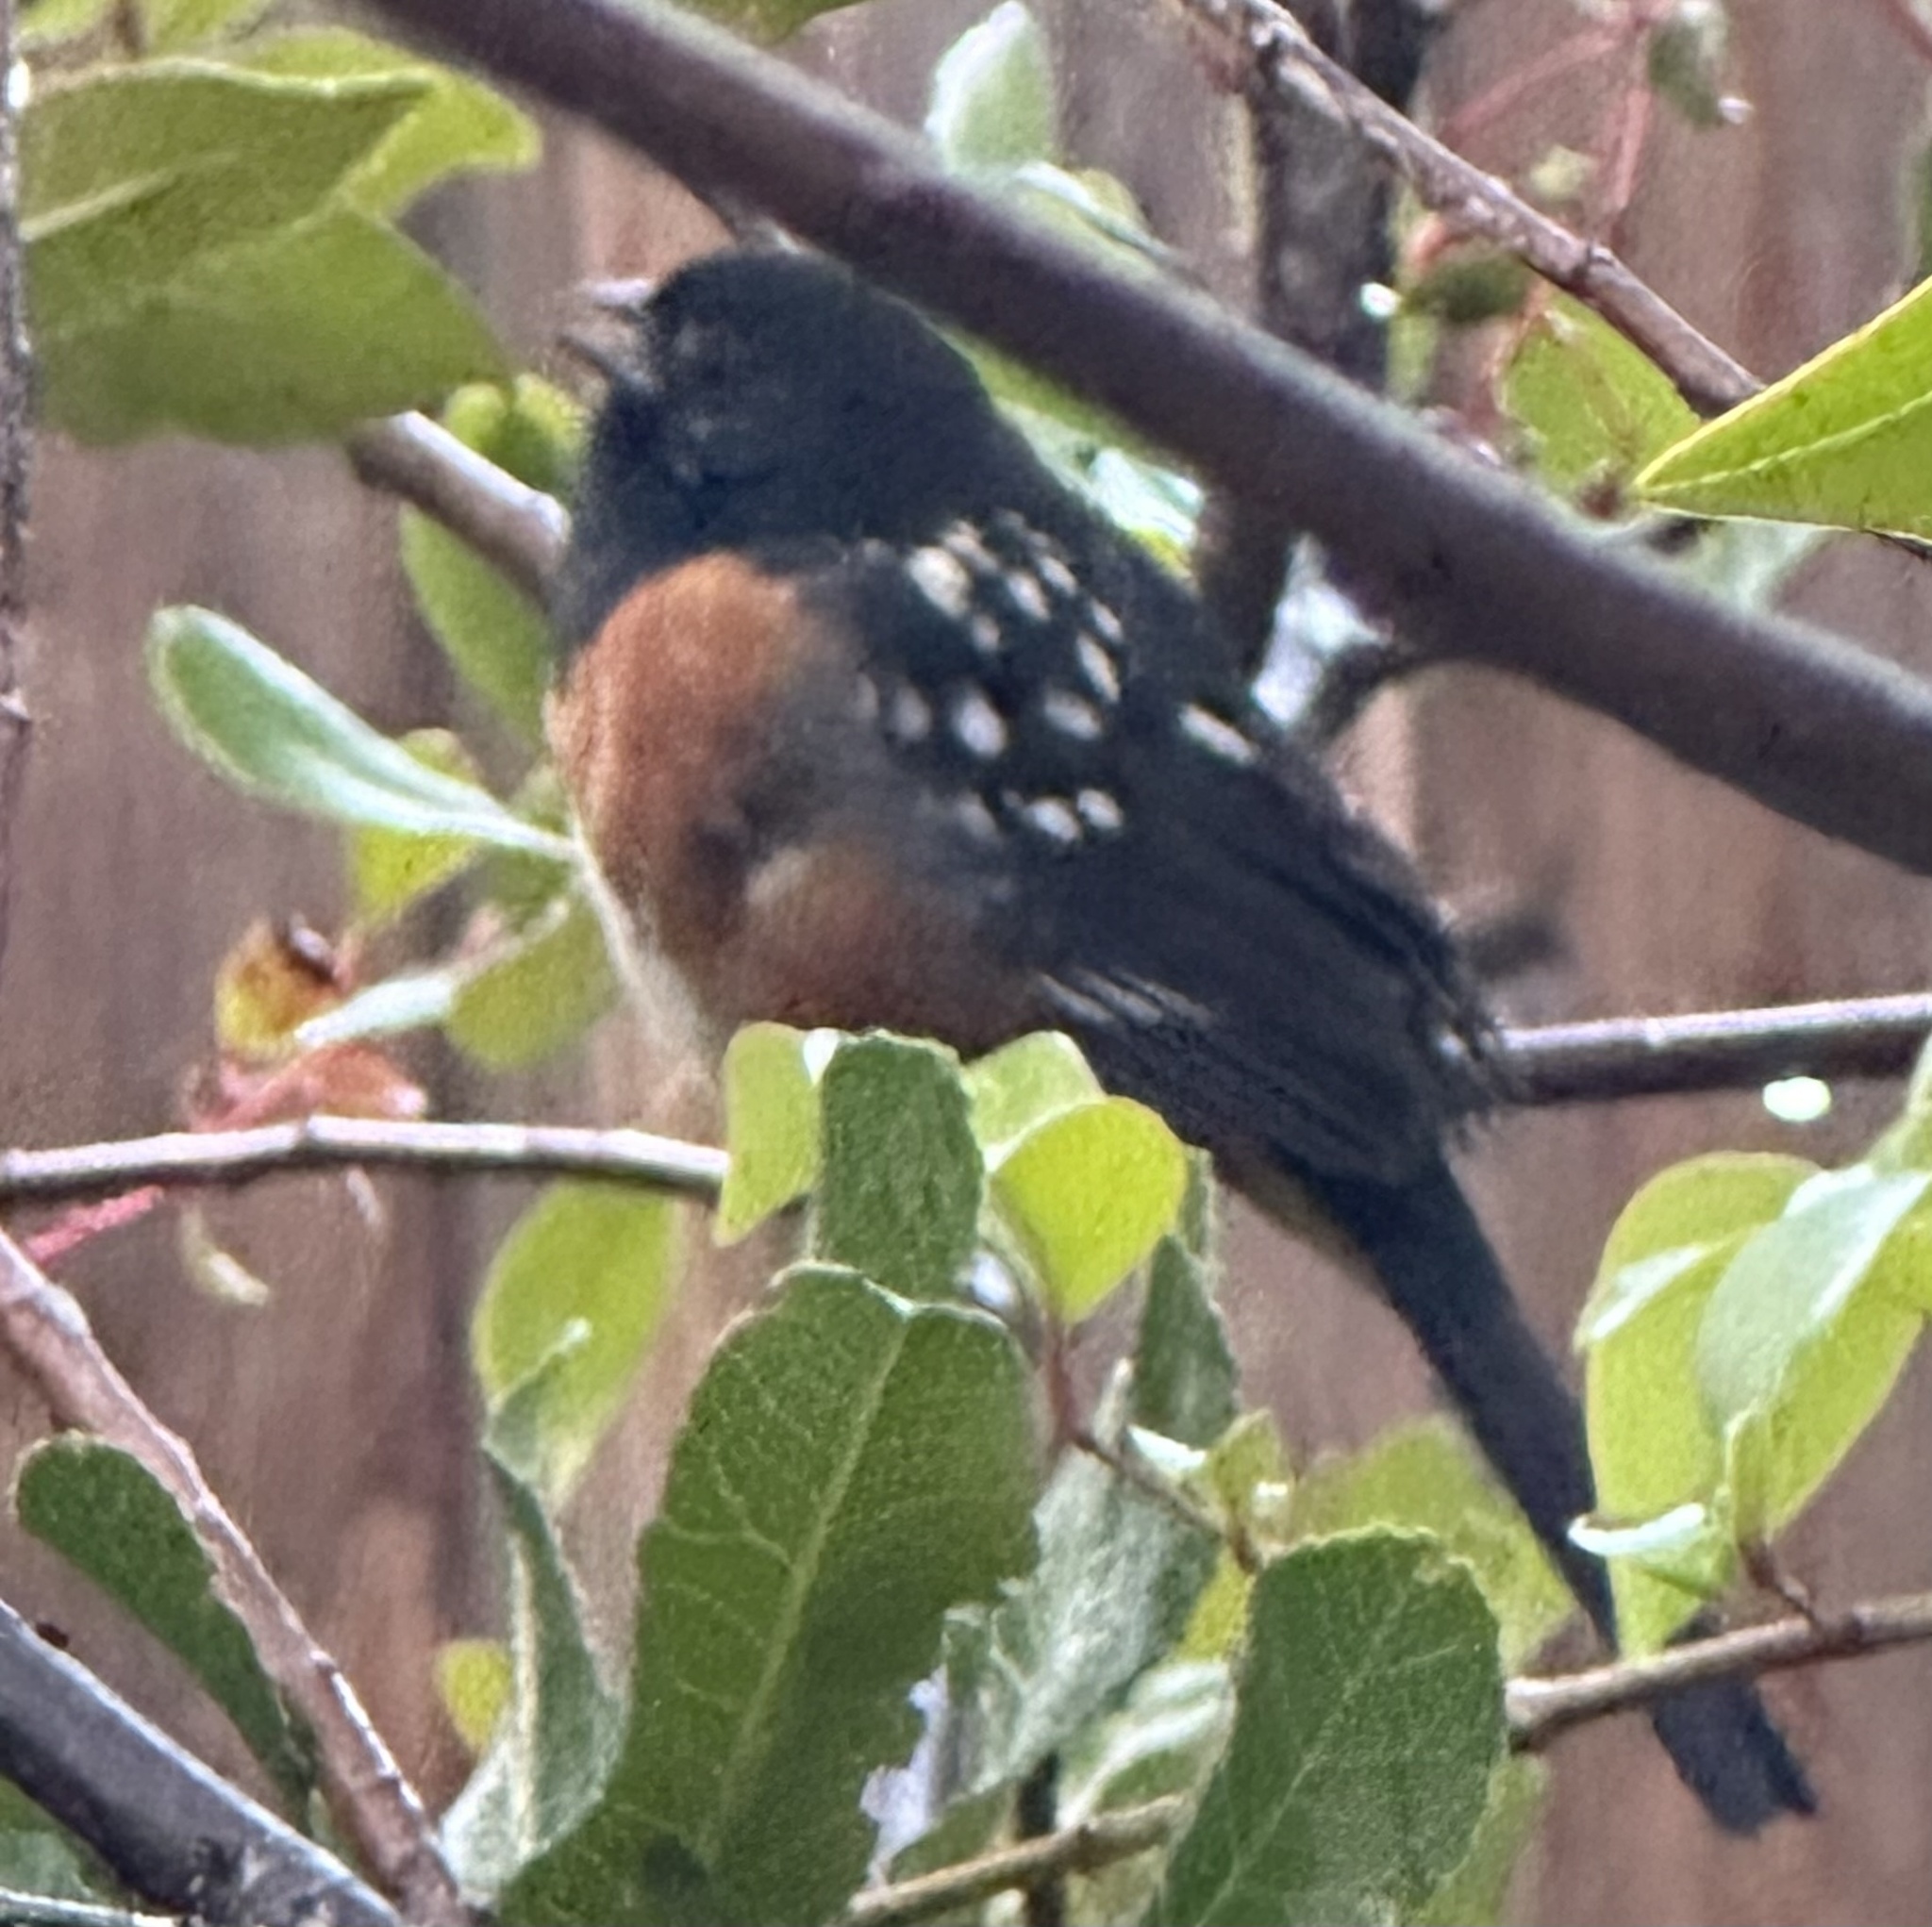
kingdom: Animalia
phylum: Chordata
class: Aves
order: Passeriformes
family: Passerellidae
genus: Pipilo
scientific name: Pipilo maculatus
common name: Spotted towhee
